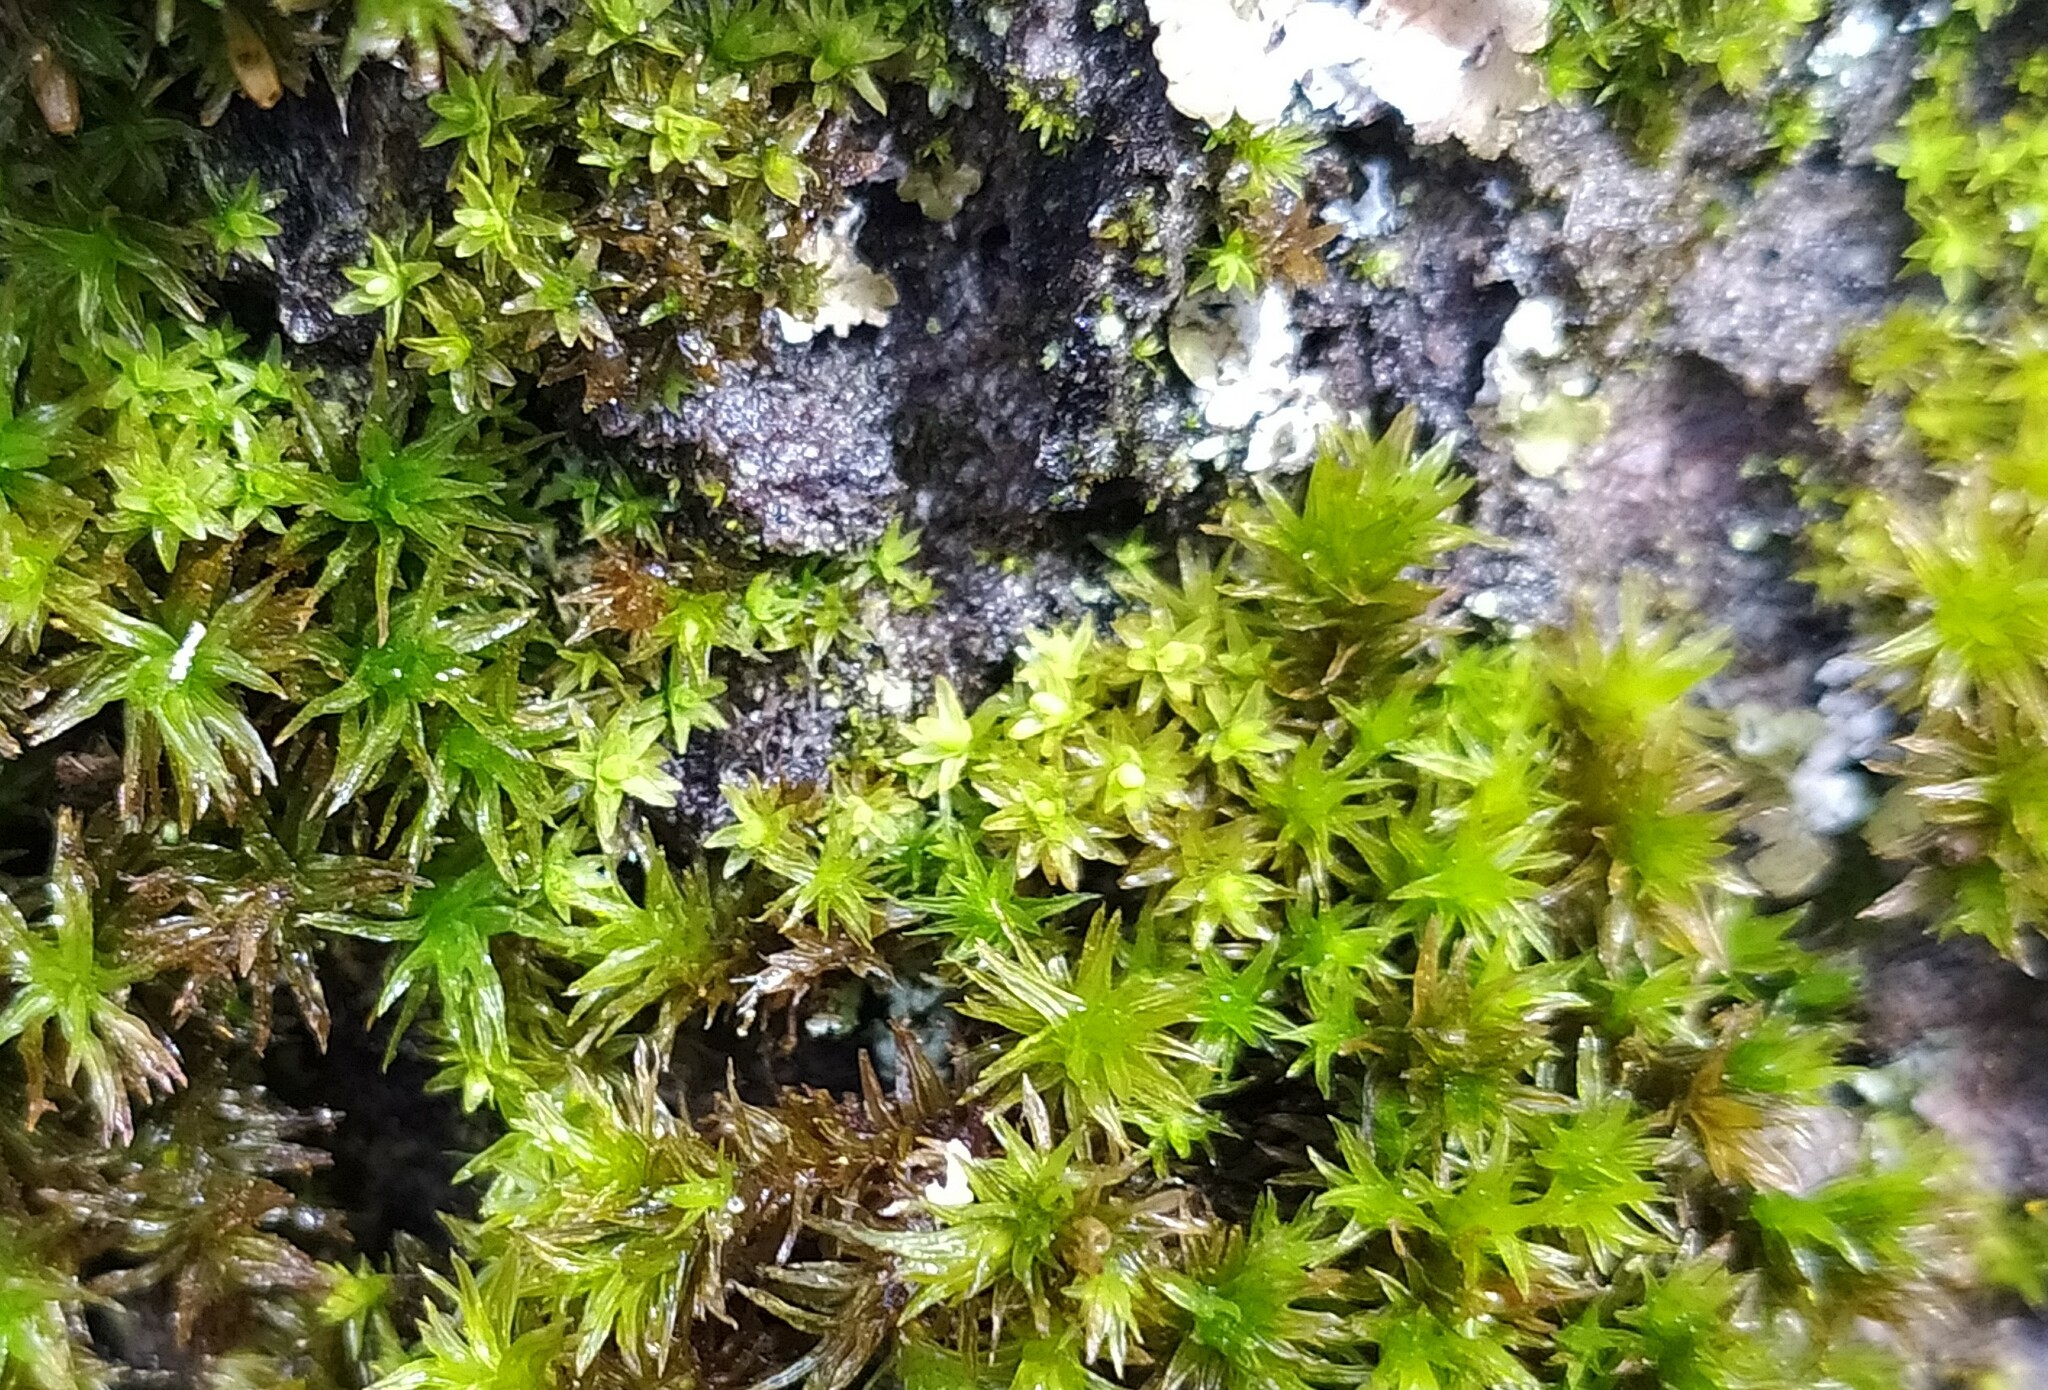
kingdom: Plantae
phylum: Bryophyta
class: Bryopsida
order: Orthotrichales
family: Orthotrichaceae
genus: Nyholmiella
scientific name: Nyholmiella obtusifolia
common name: Blunt-leaved bristle-moss
